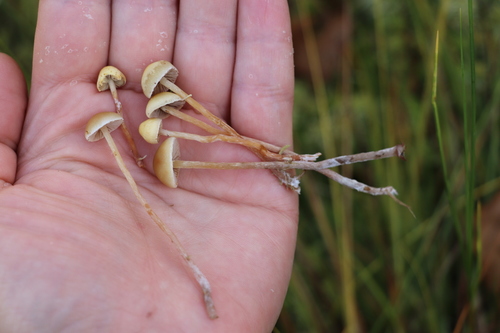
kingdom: Fungi
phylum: Basidiomycota
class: Agaricomycetes
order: Agaricales
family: Strophariaceae
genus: Hypholoma
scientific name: Hypholoma elongatum
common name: Sphagnum brownie
